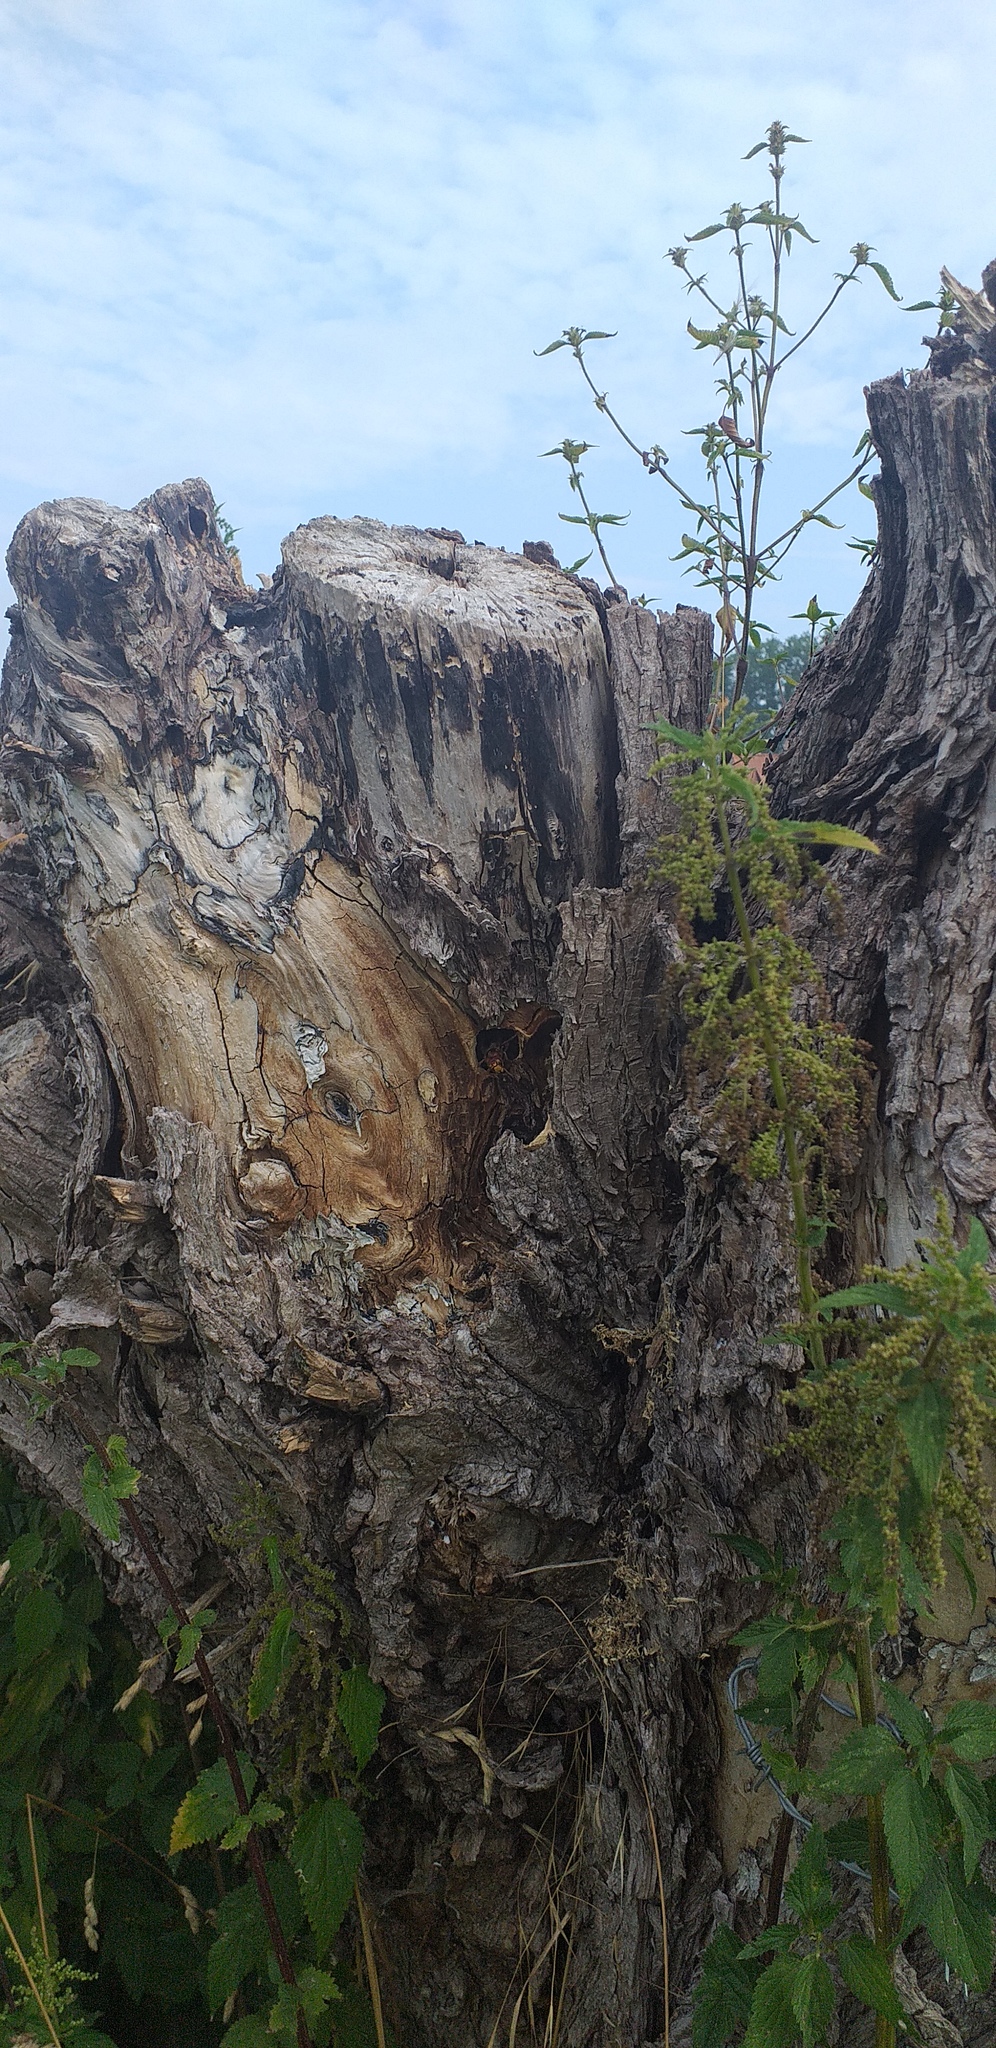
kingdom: Animalia
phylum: Arthropoda
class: Insecta
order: Hymenoptera
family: Vespidae
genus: Vespa
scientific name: Vespa crabro
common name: Hornet
